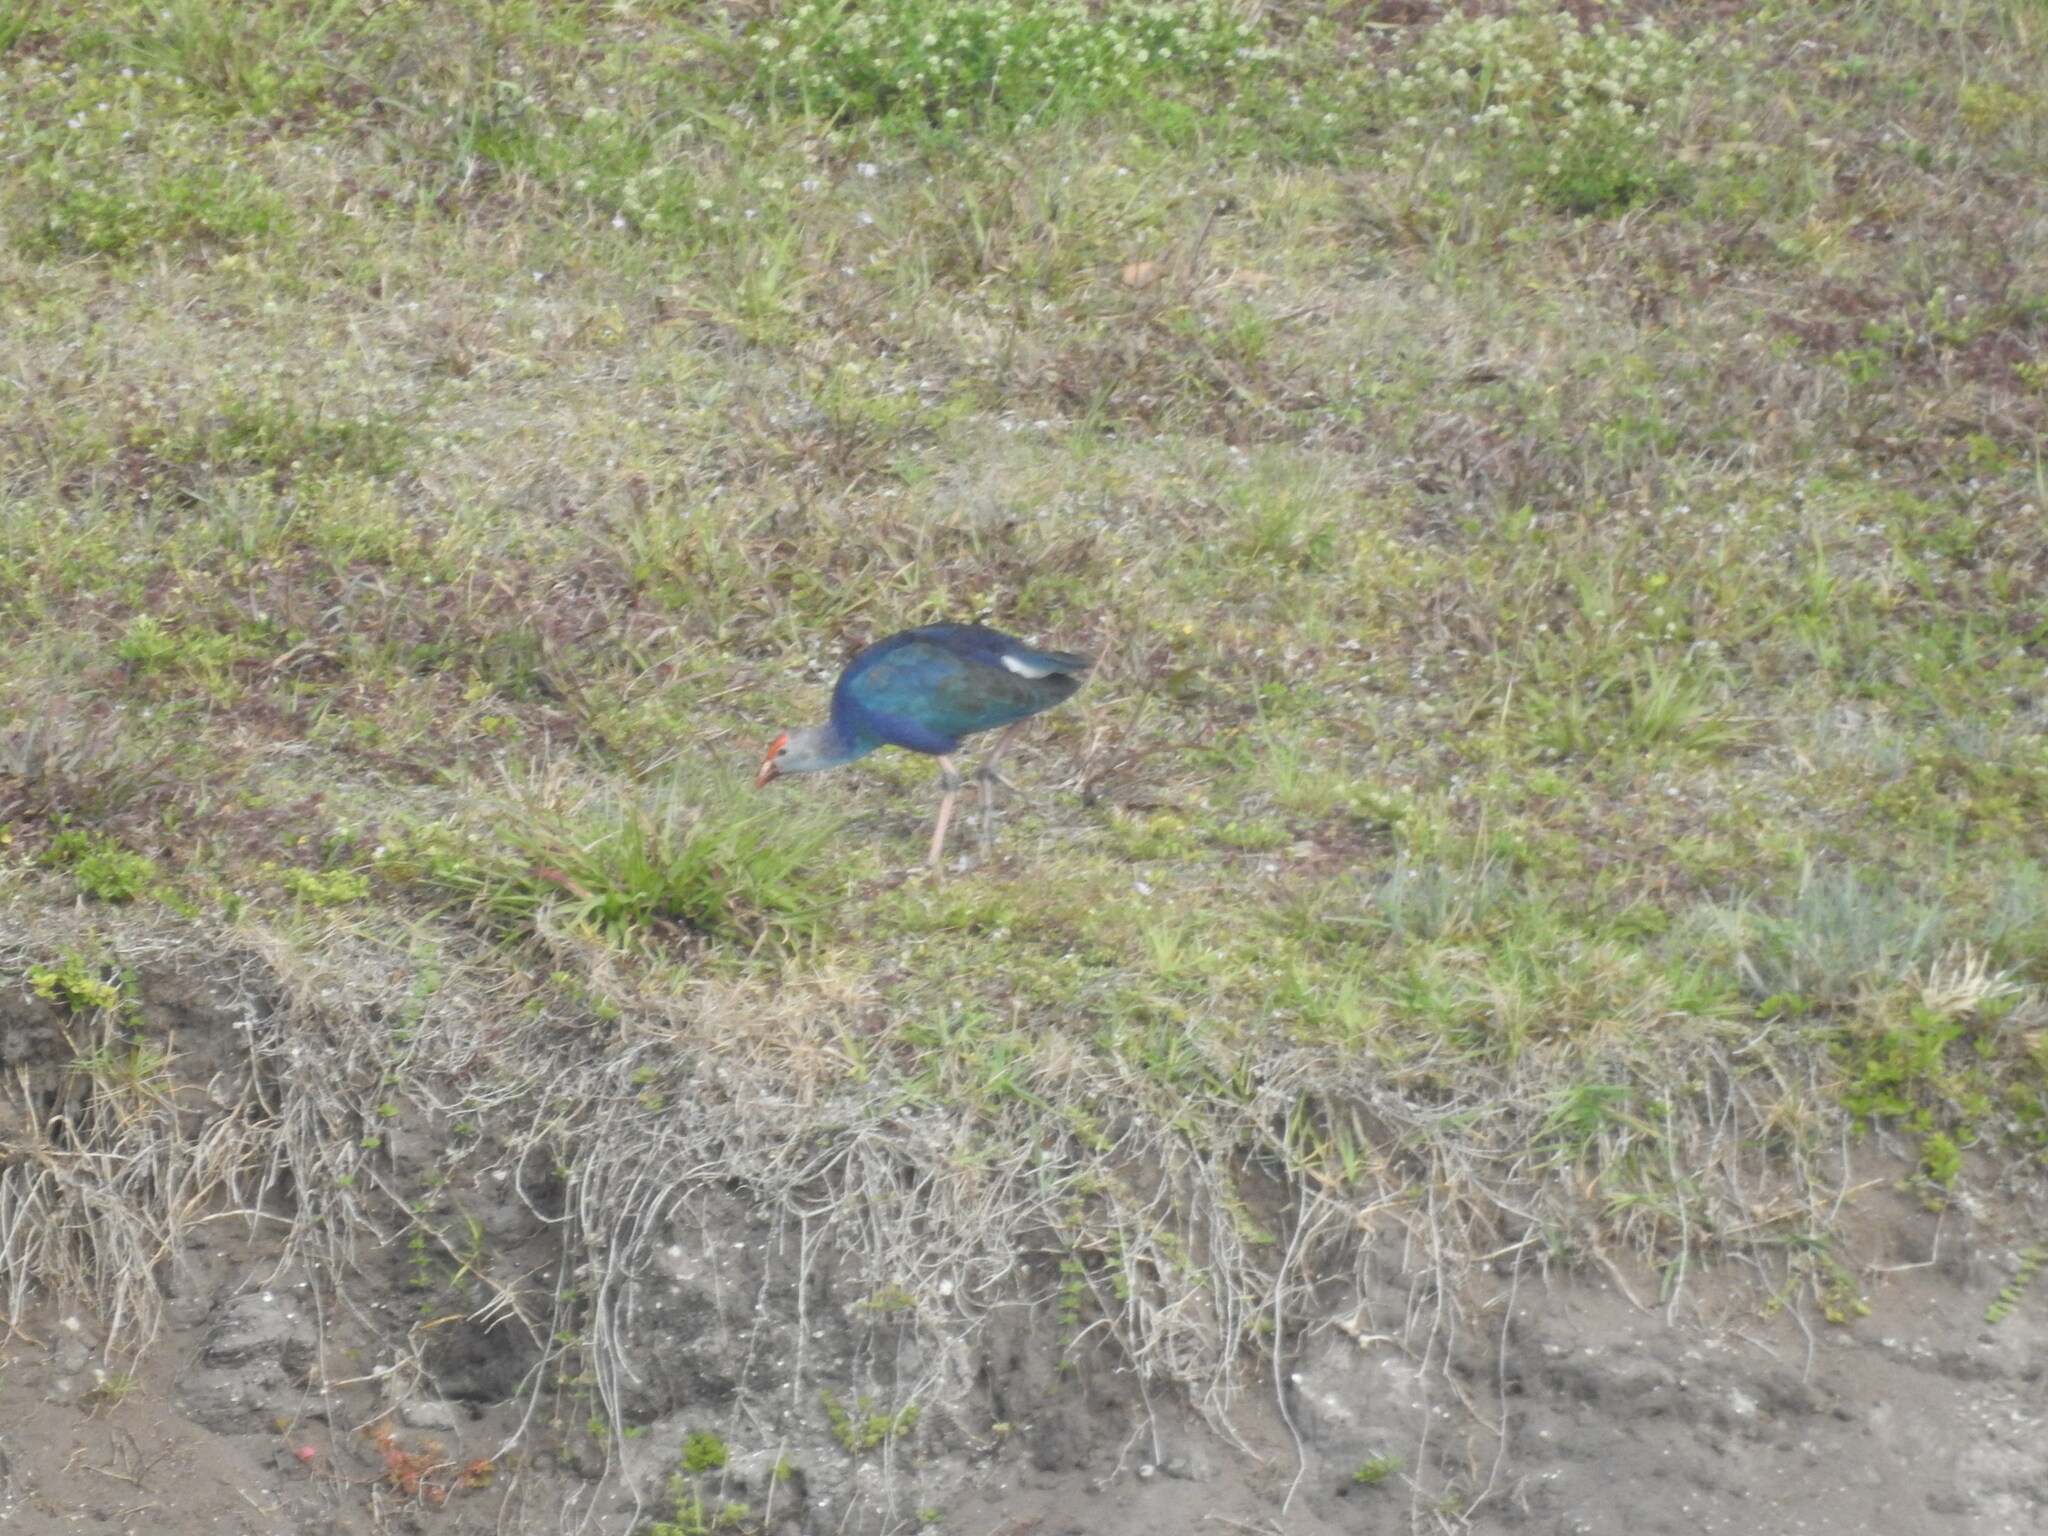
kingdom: Animalia
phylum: Chordata
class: Aves
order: Gruiformes
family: Rallidae
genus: Porphyrio
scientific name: Porphyrio porphyrio
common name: Purple swamphen
